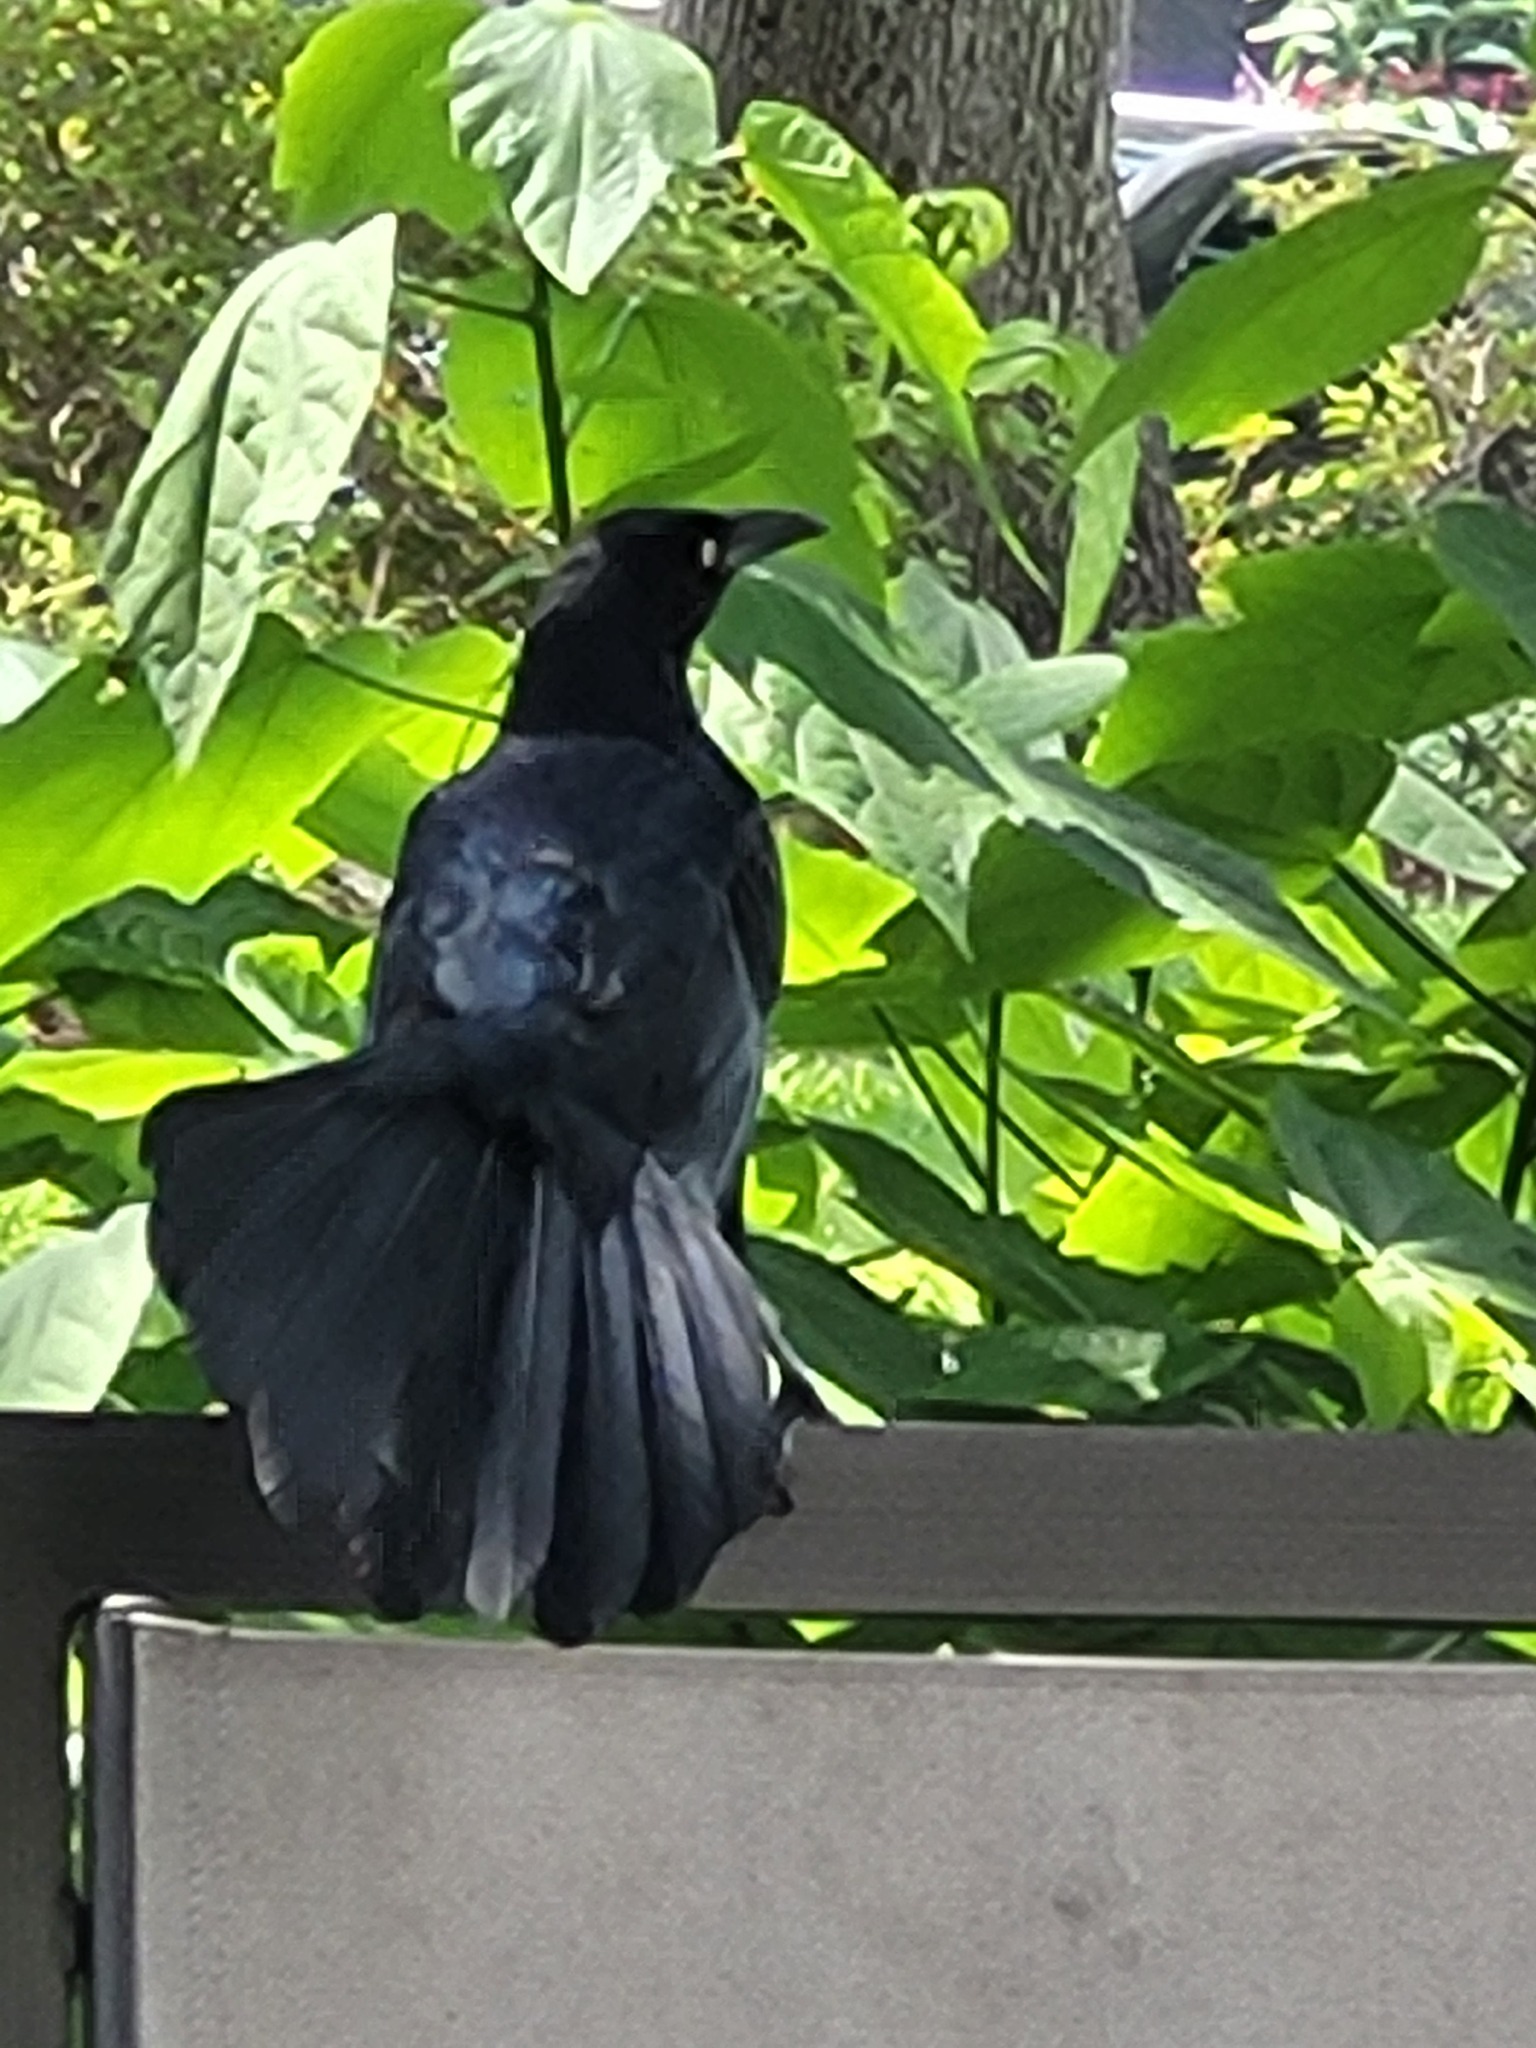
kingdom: Animalia
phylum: Chordata
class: Aves
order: Passeriformes
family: Icteridae
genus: Quiscalus
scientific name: Quiscalus mexicanus
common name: Great-tailed grackle
